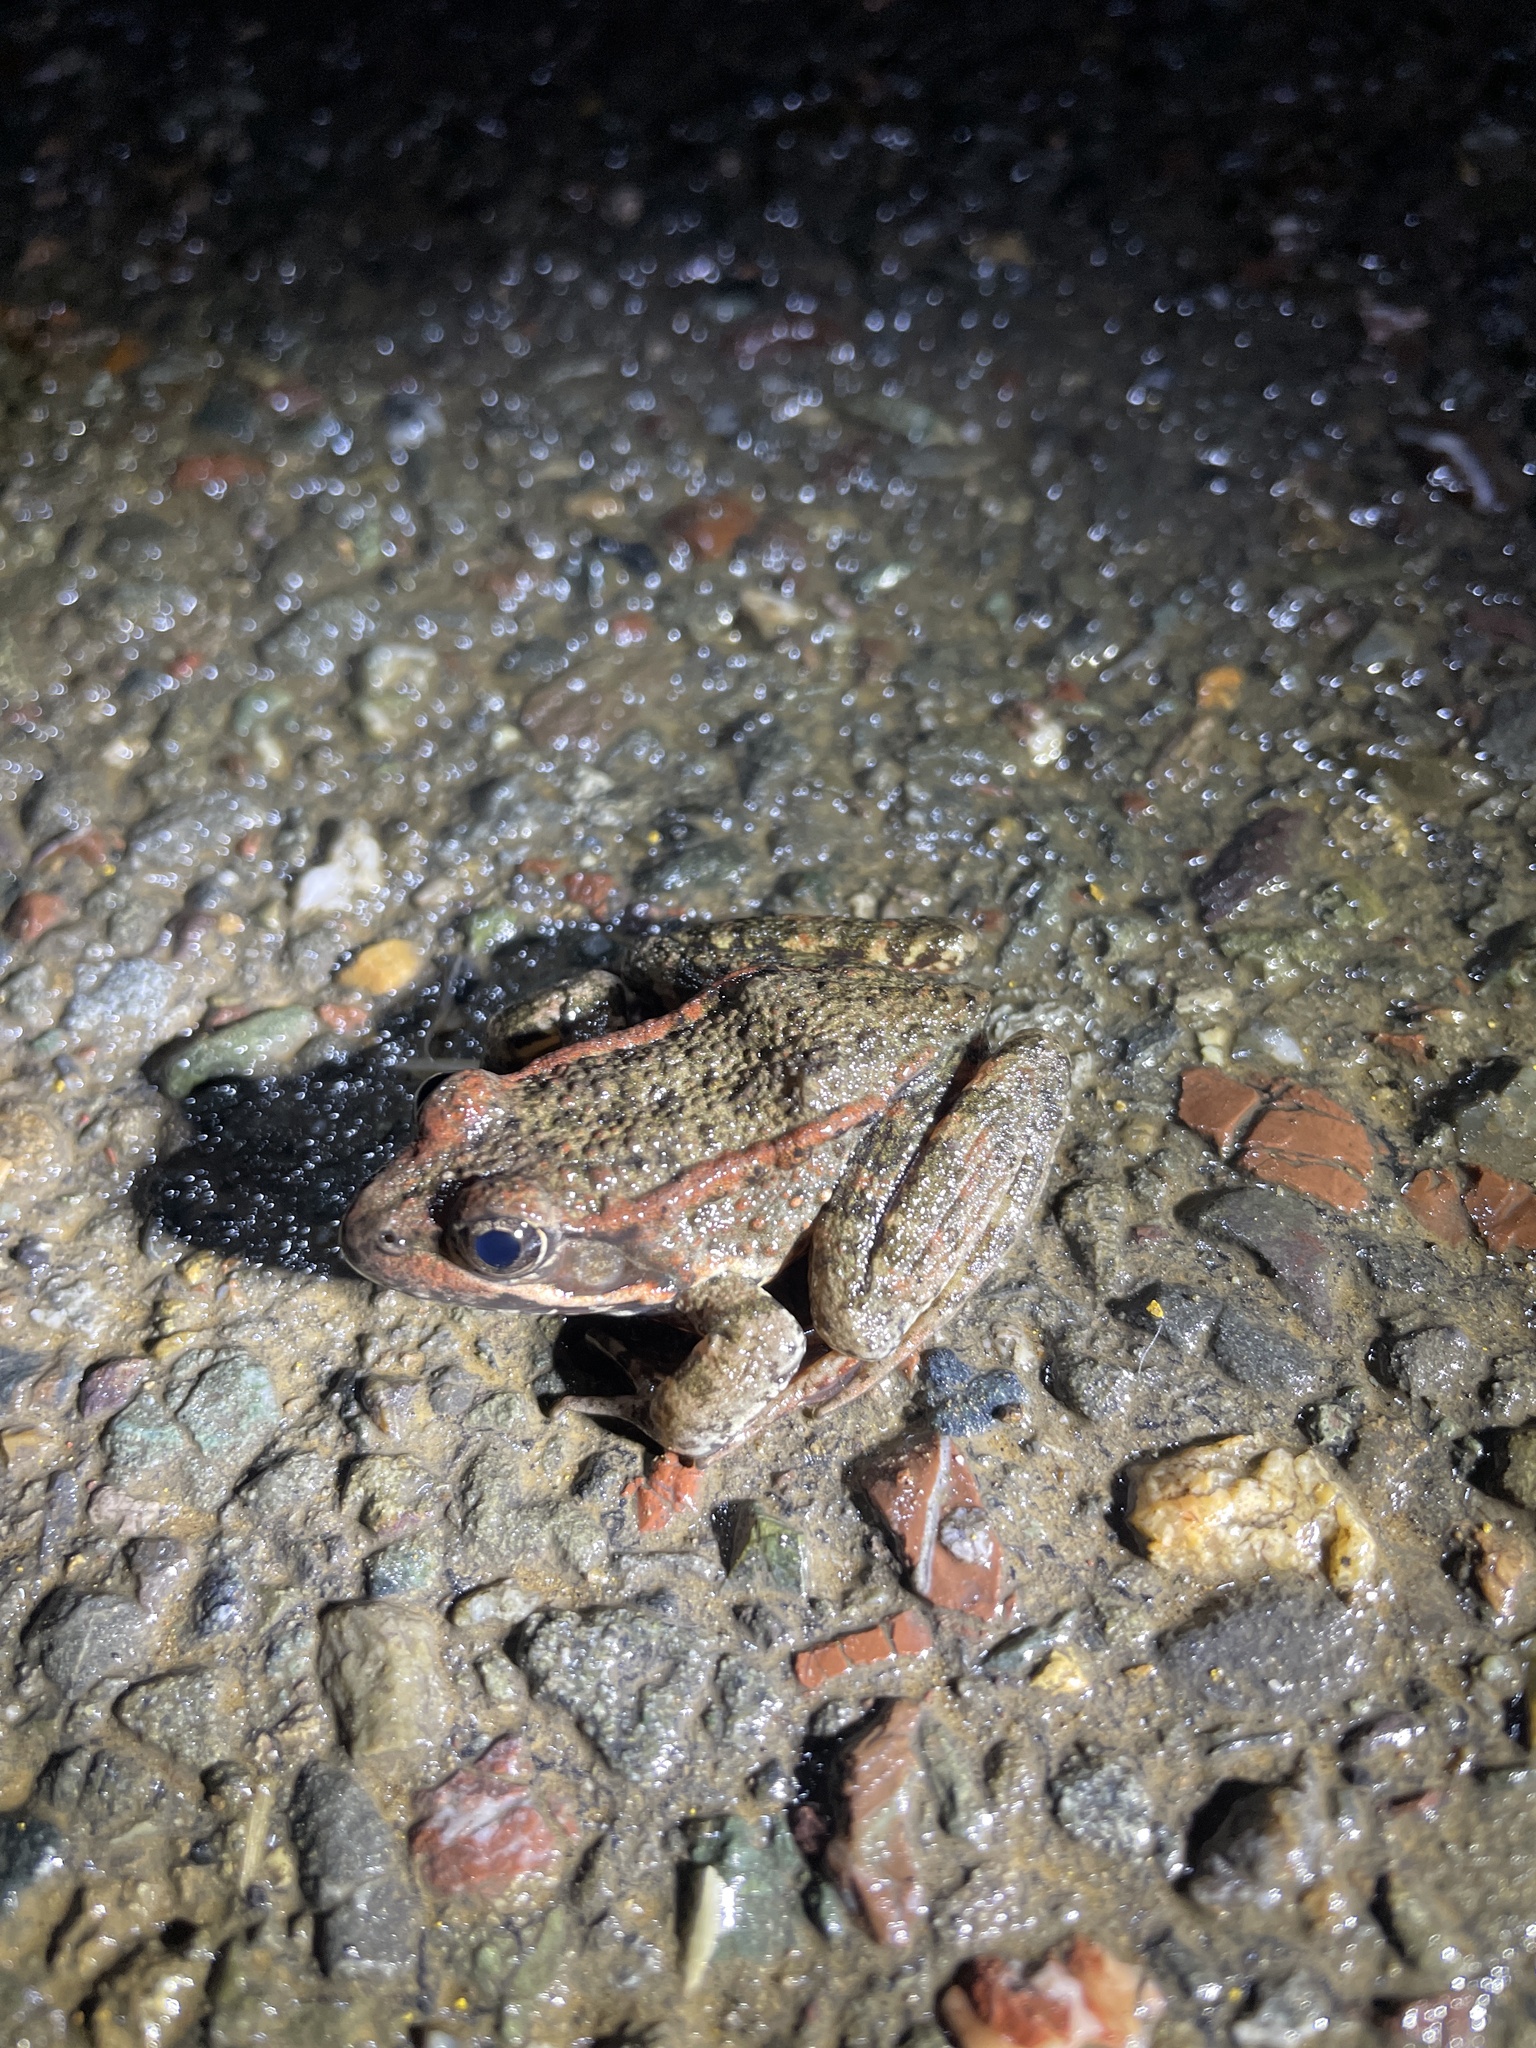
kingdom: Animalia
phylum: Chordata
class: Amphibia
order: Anura
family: Ranidae
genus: Rana
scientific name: Rana draytonii
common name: California red-legged frog
